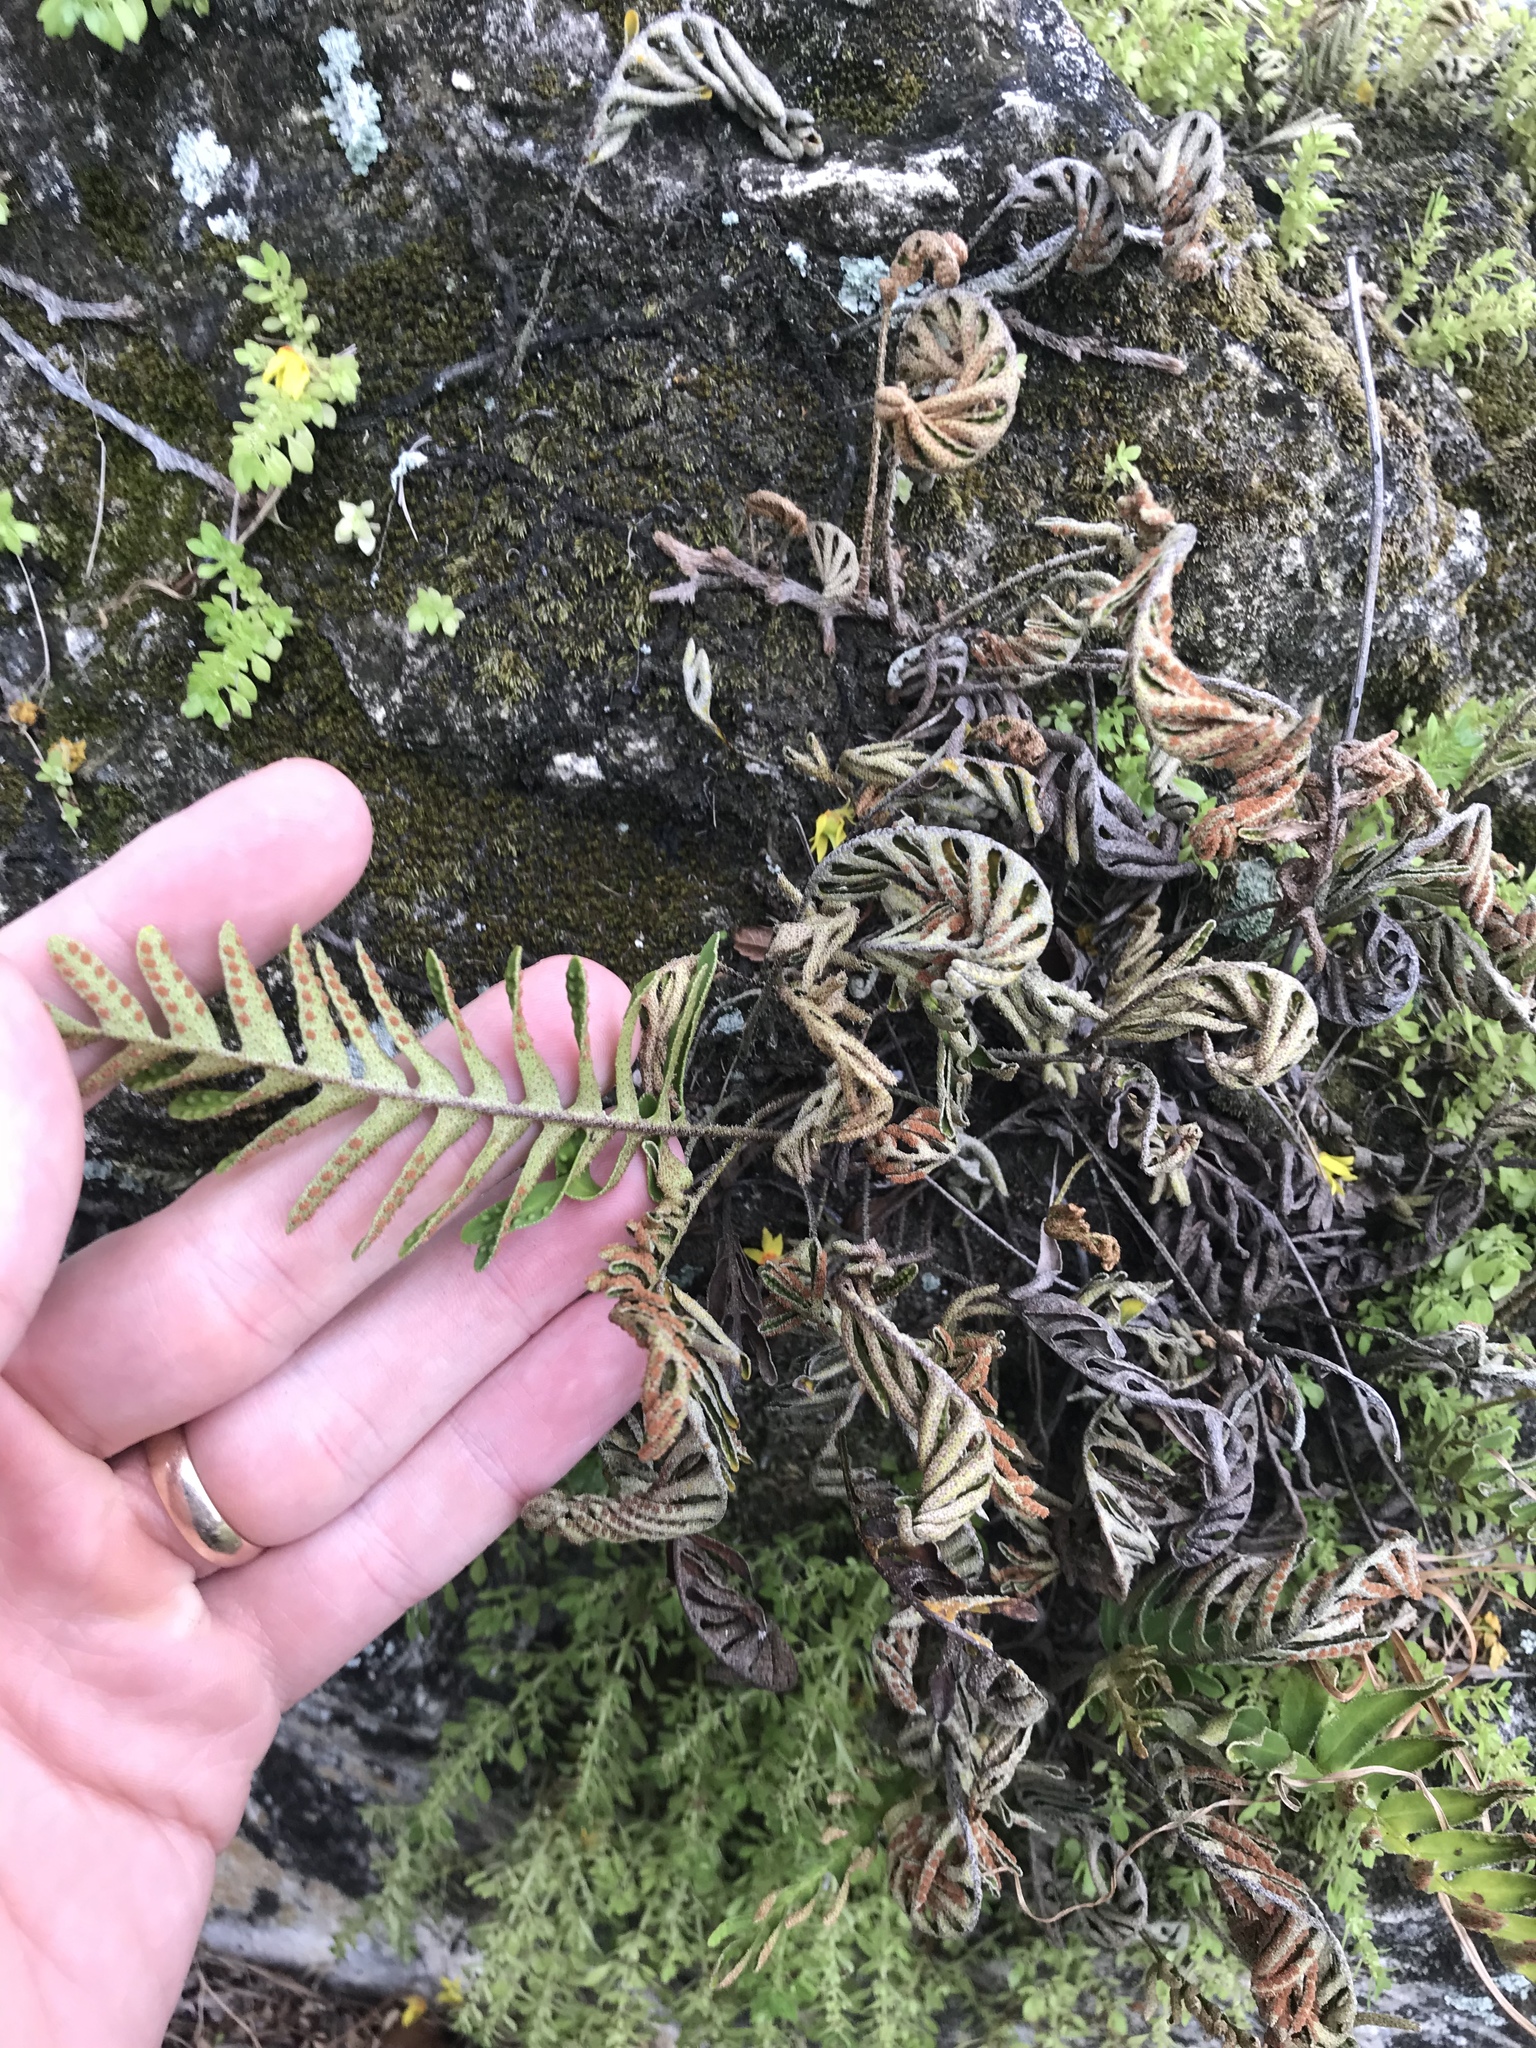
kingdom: Plantae
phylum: Tracheophyta
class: Polypodiopsida
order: Polypodiales
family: Polypodiaceae
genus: Pleopeltis
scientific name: Pleopeltis michauxiana
